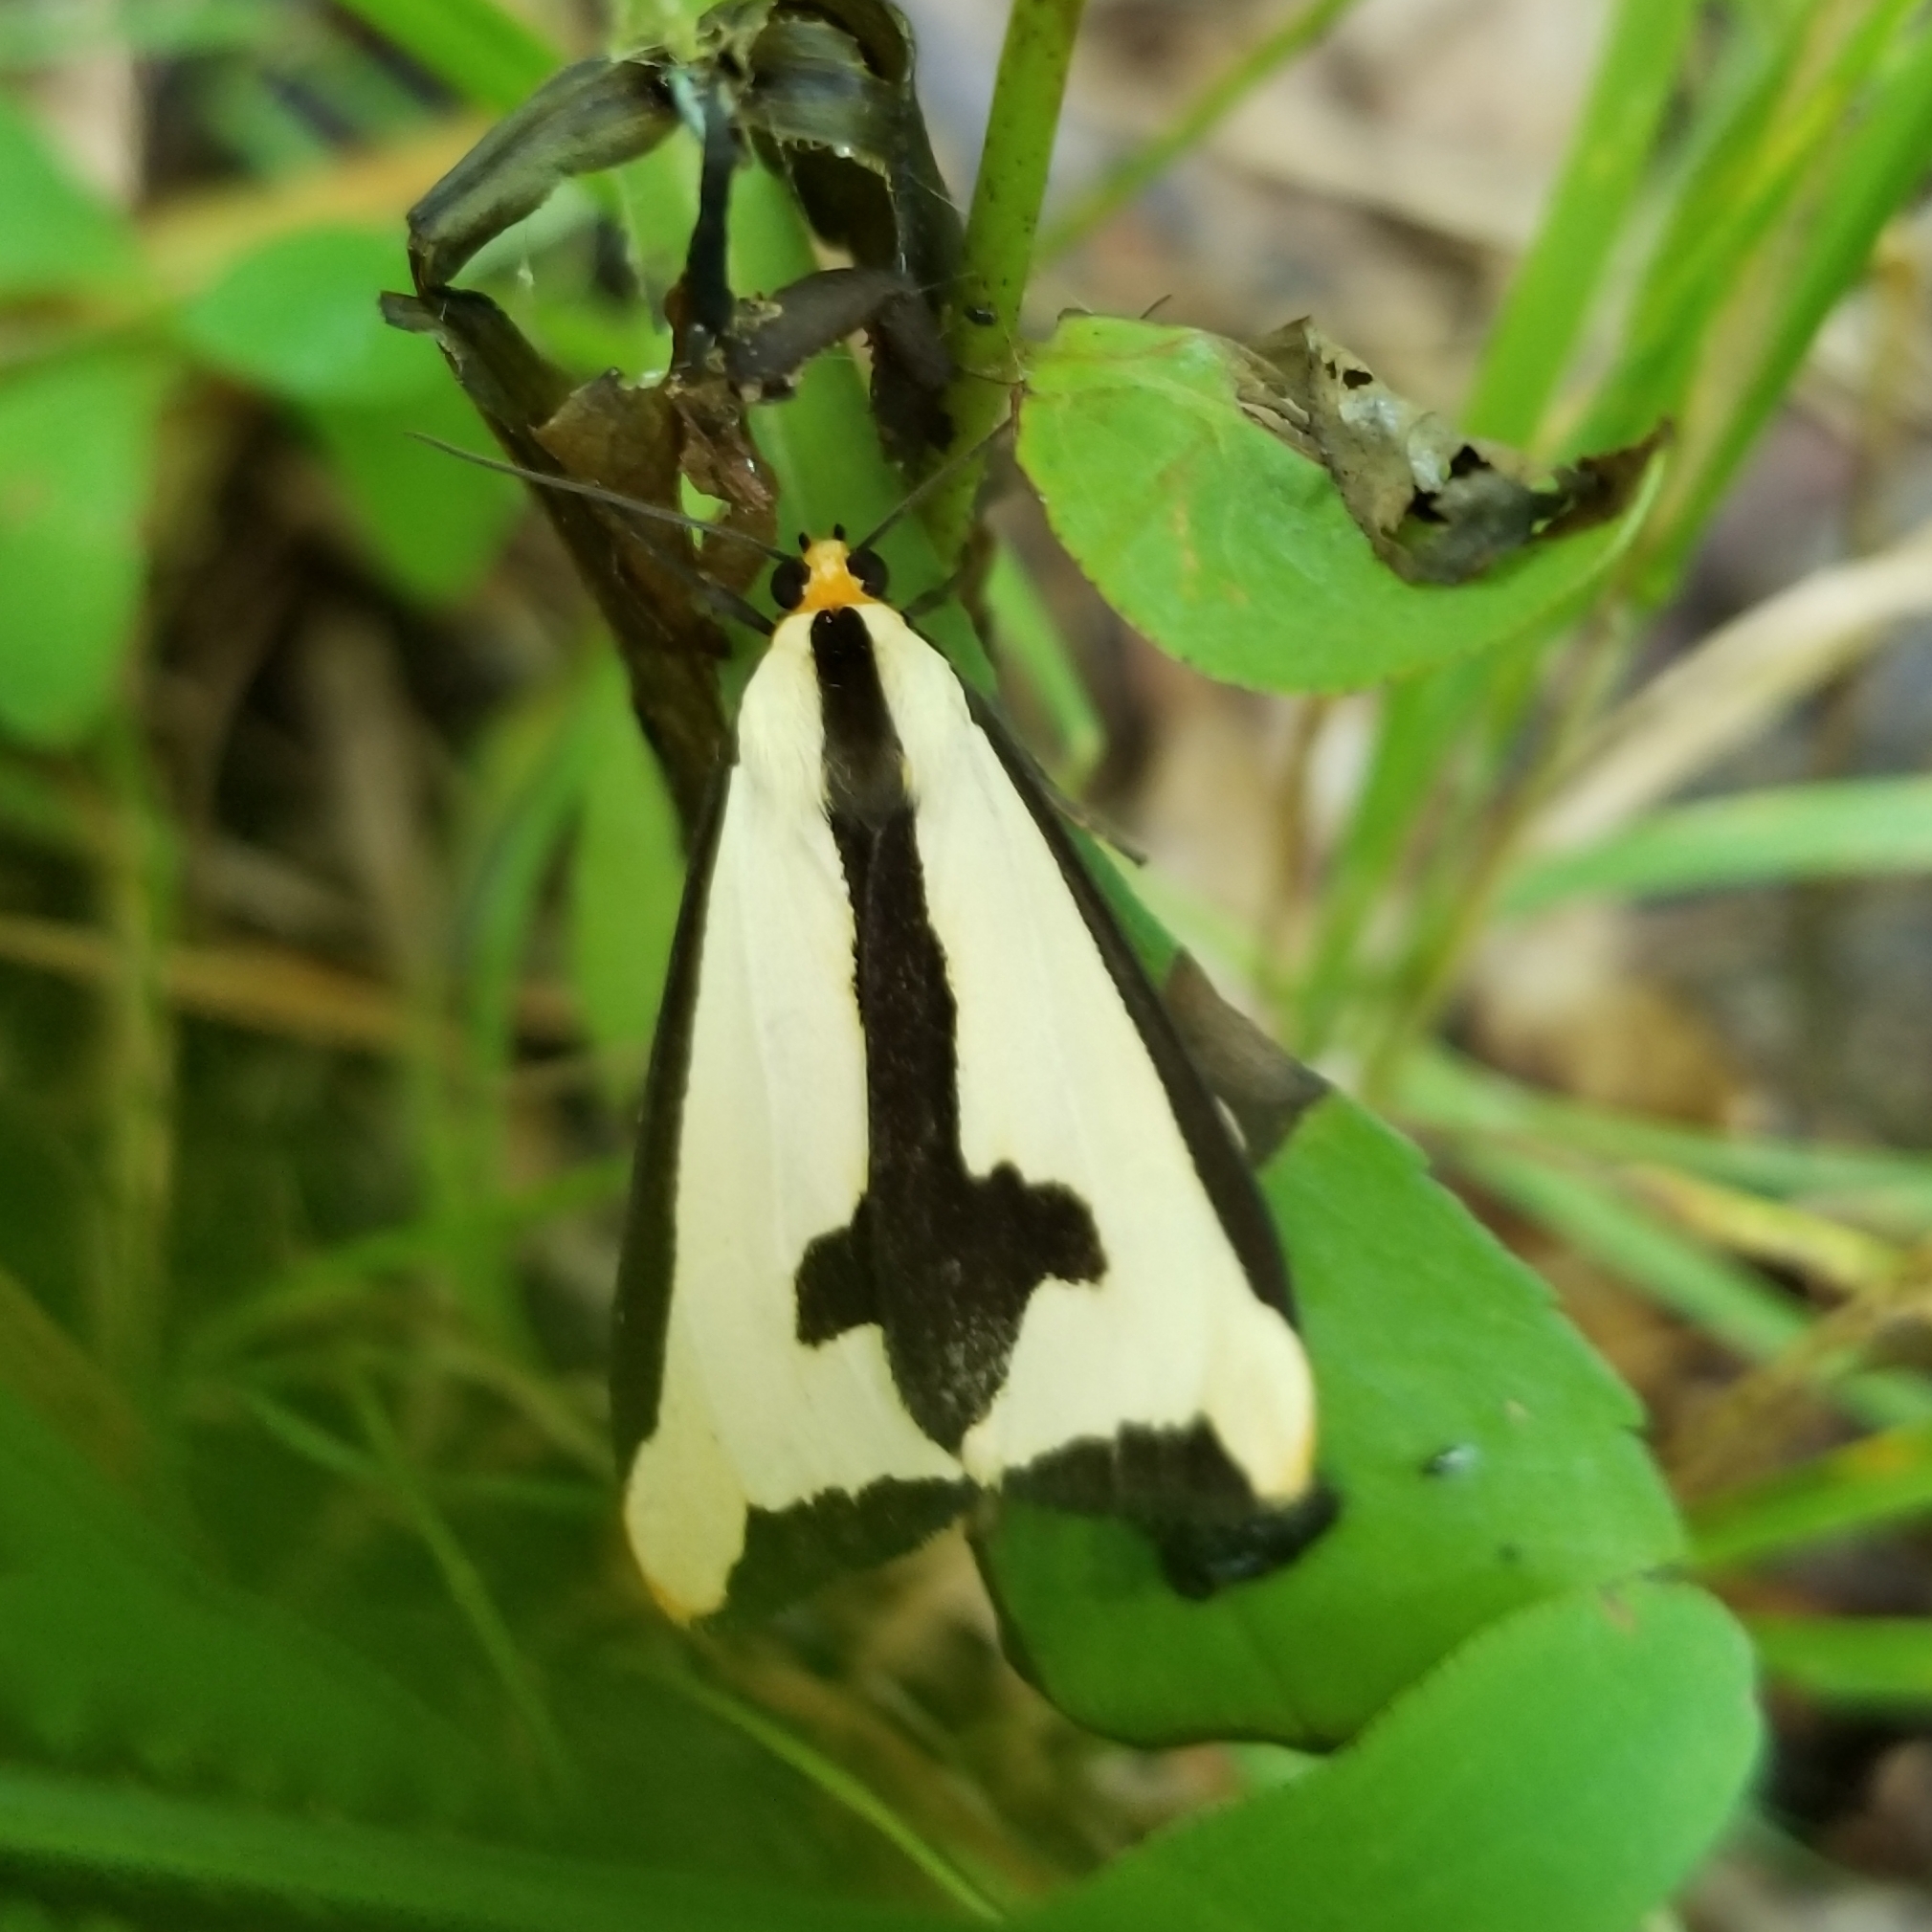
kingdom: Animalia
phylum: Arthropoda
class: Insecta
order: Lepidoptera
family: Erebidae
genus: Haploa
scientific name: Haploa clymene
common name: Clymene moth
